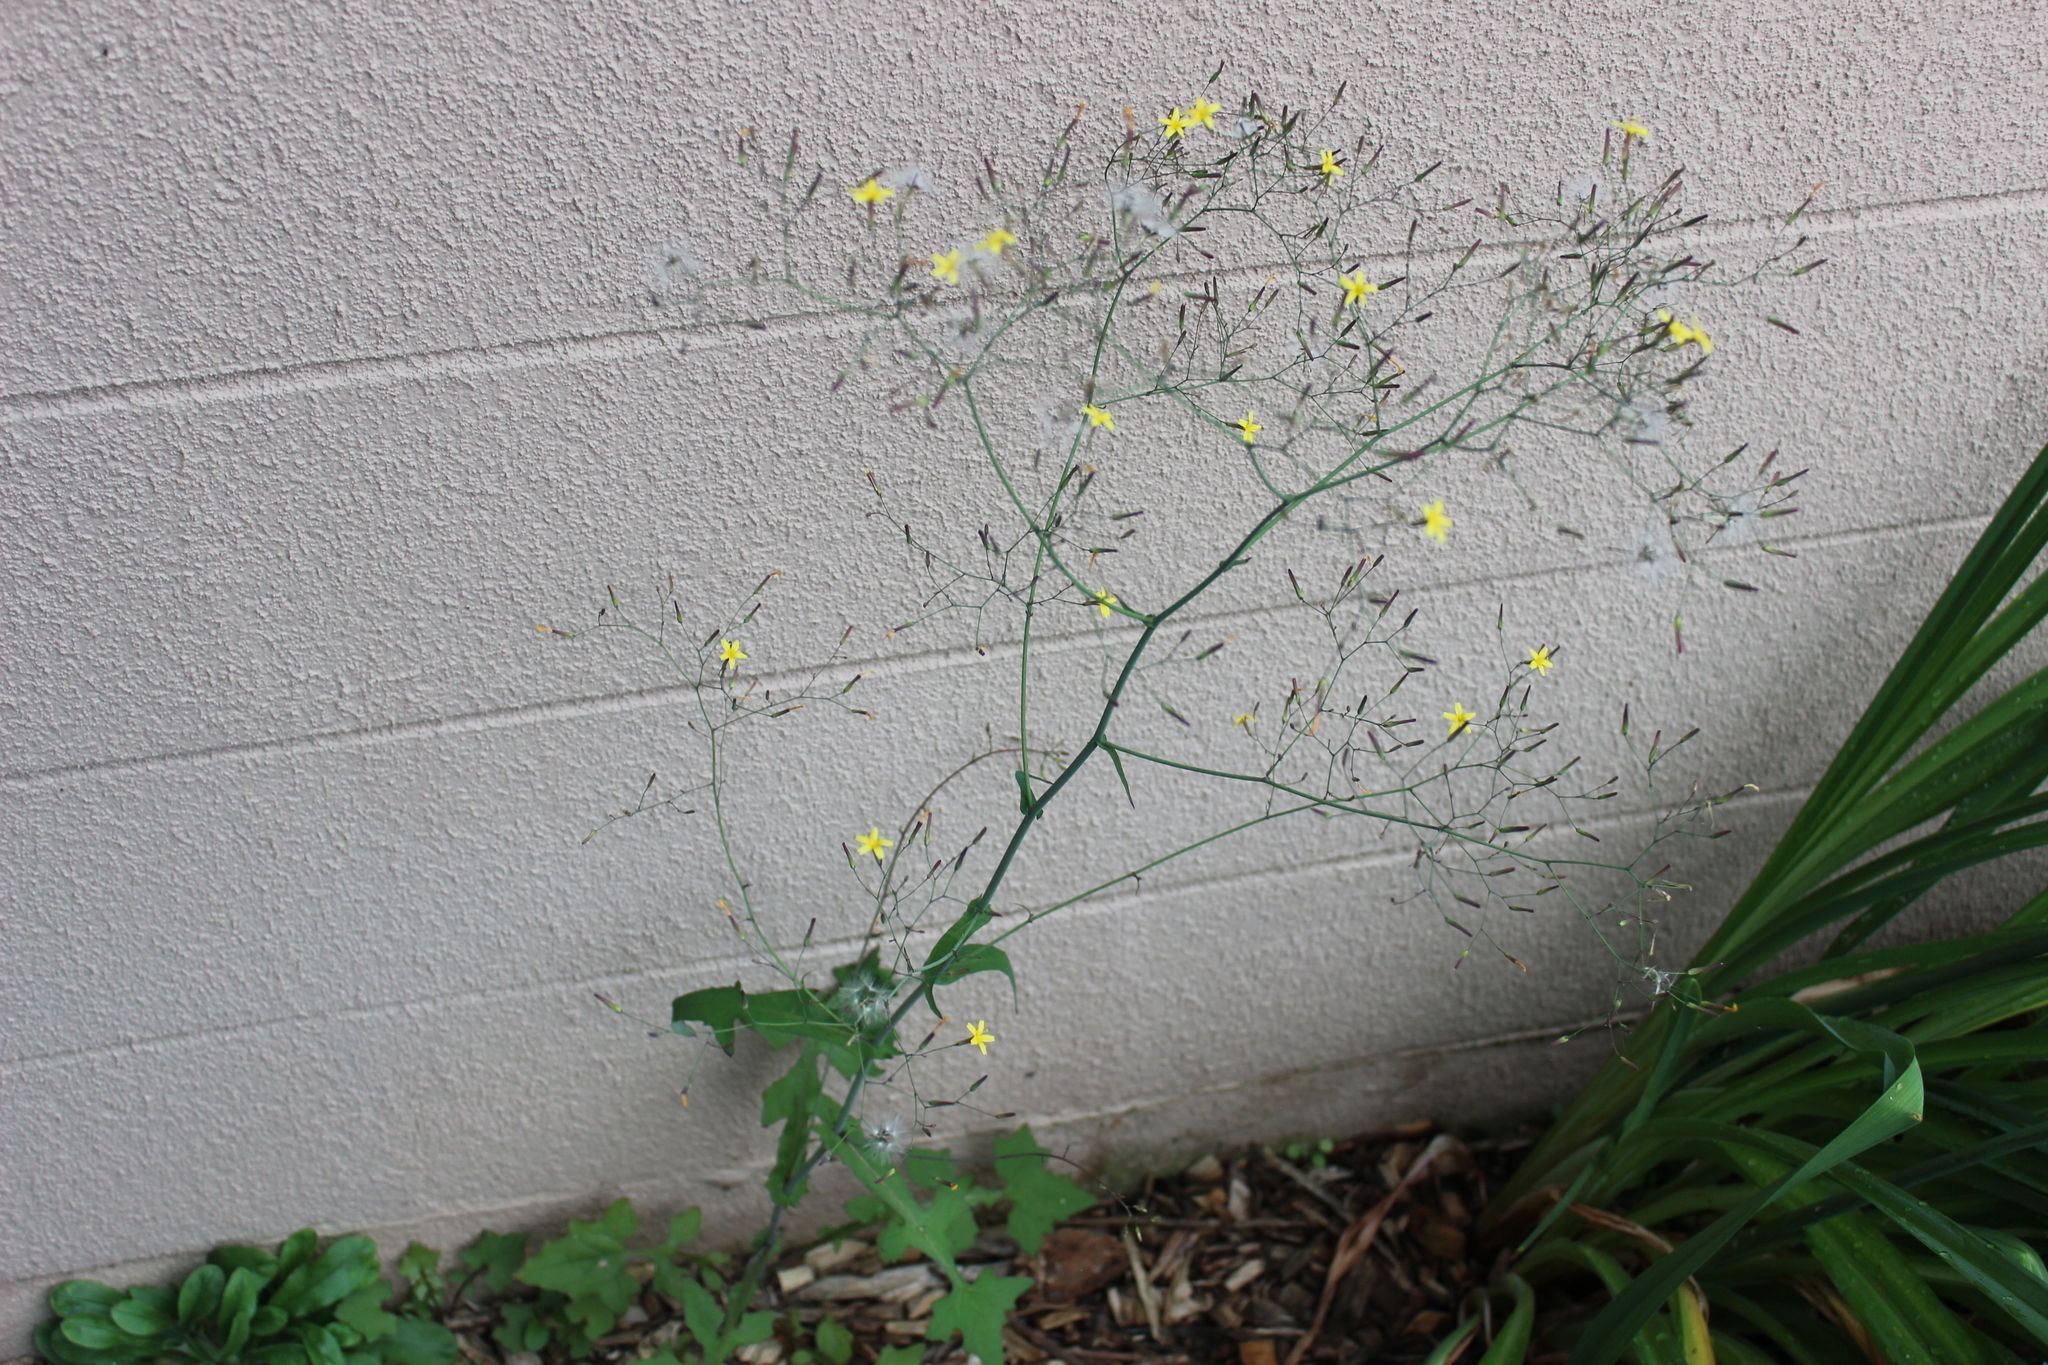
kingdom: Plantae
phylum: Tracheophyta
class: Magnoliopsida
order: Asterales
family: Asteraceae
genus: Mycelis
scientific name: Mycelis muralis
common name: Wall lettuce
